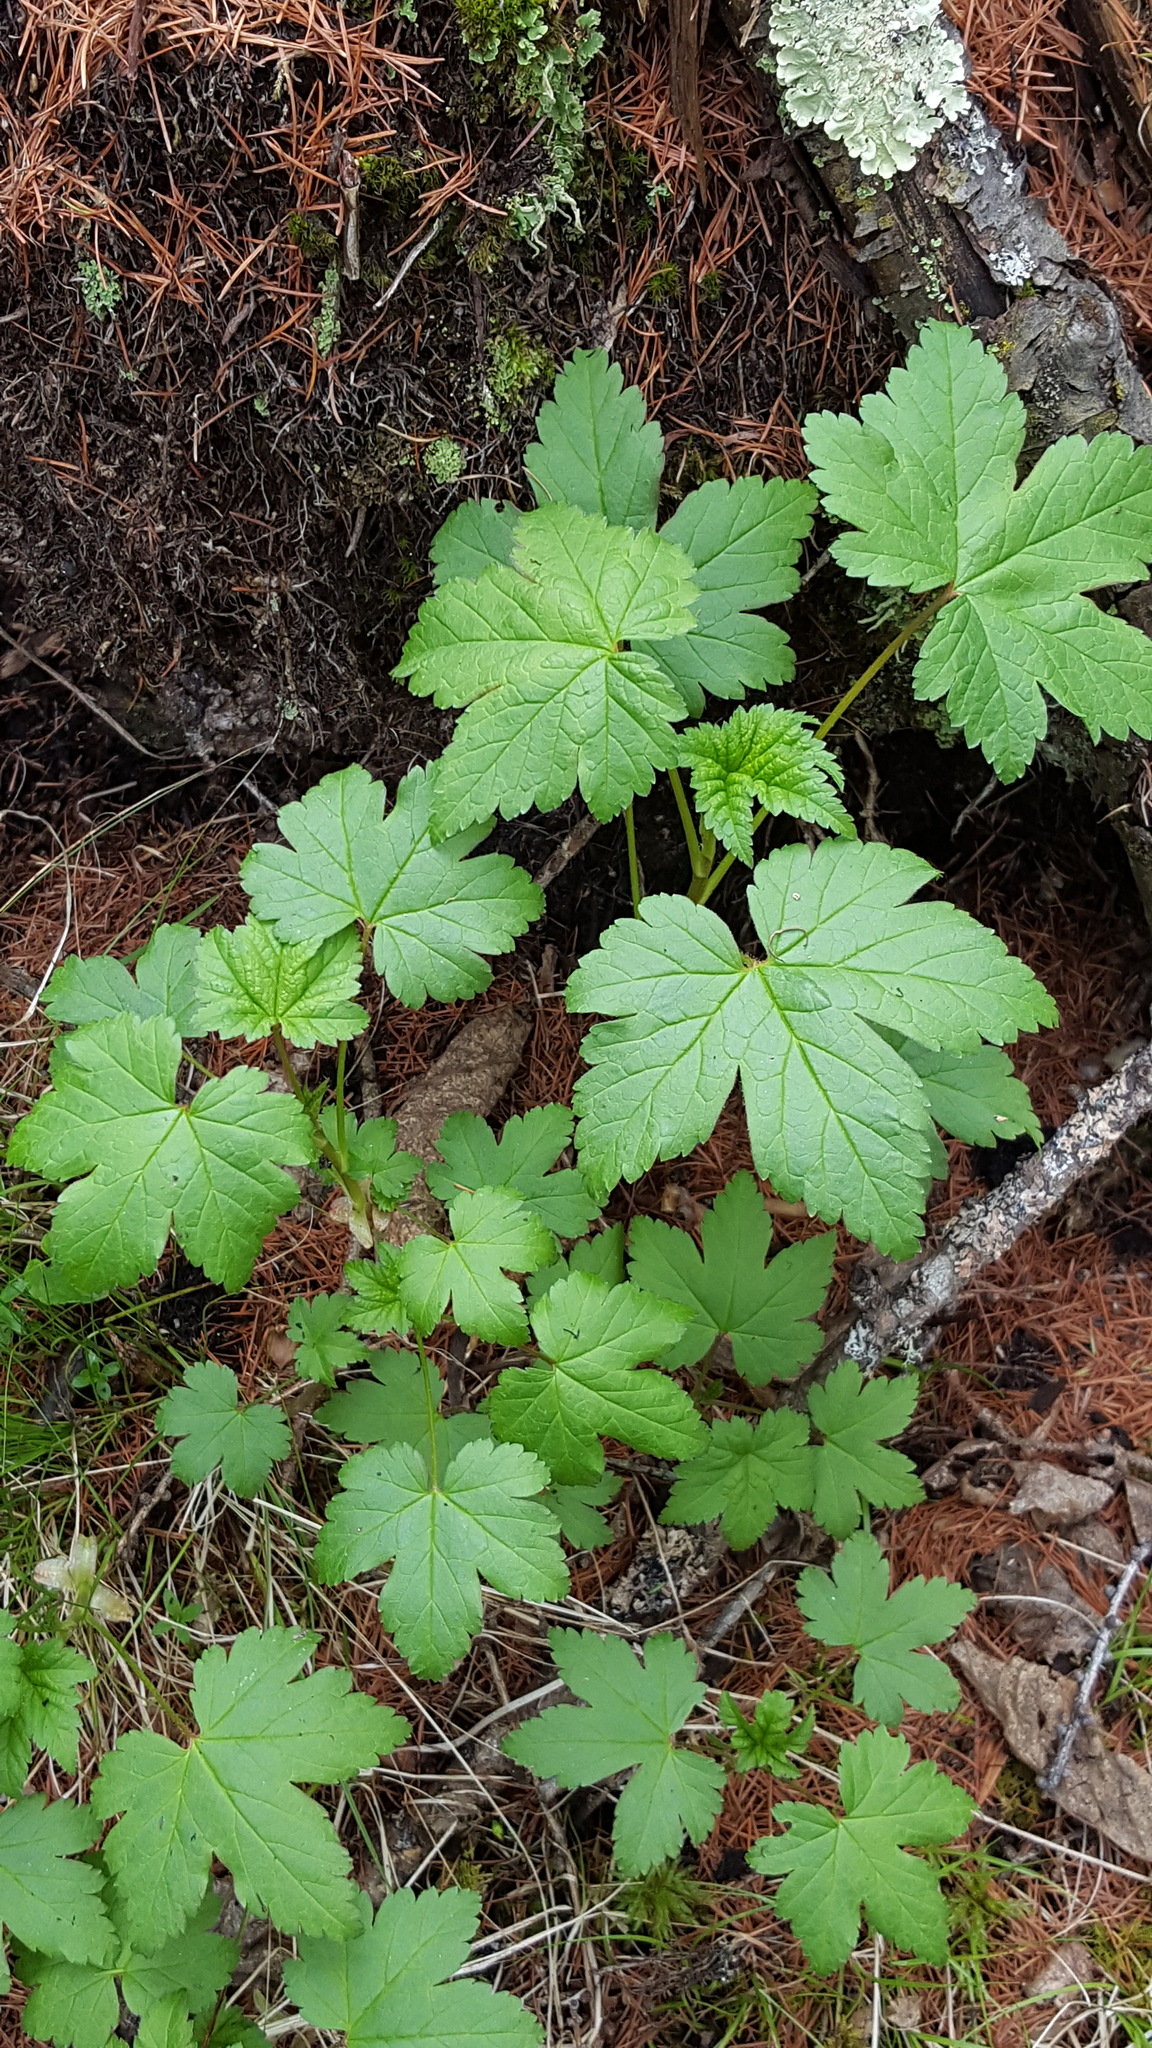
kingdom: Plantae
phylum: Tracheophyta
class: Magnoliopsida
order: Saxifragales
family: Grossulariaceae
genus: Ribes
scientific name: Ribes glandulosum
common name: Skunk currant
